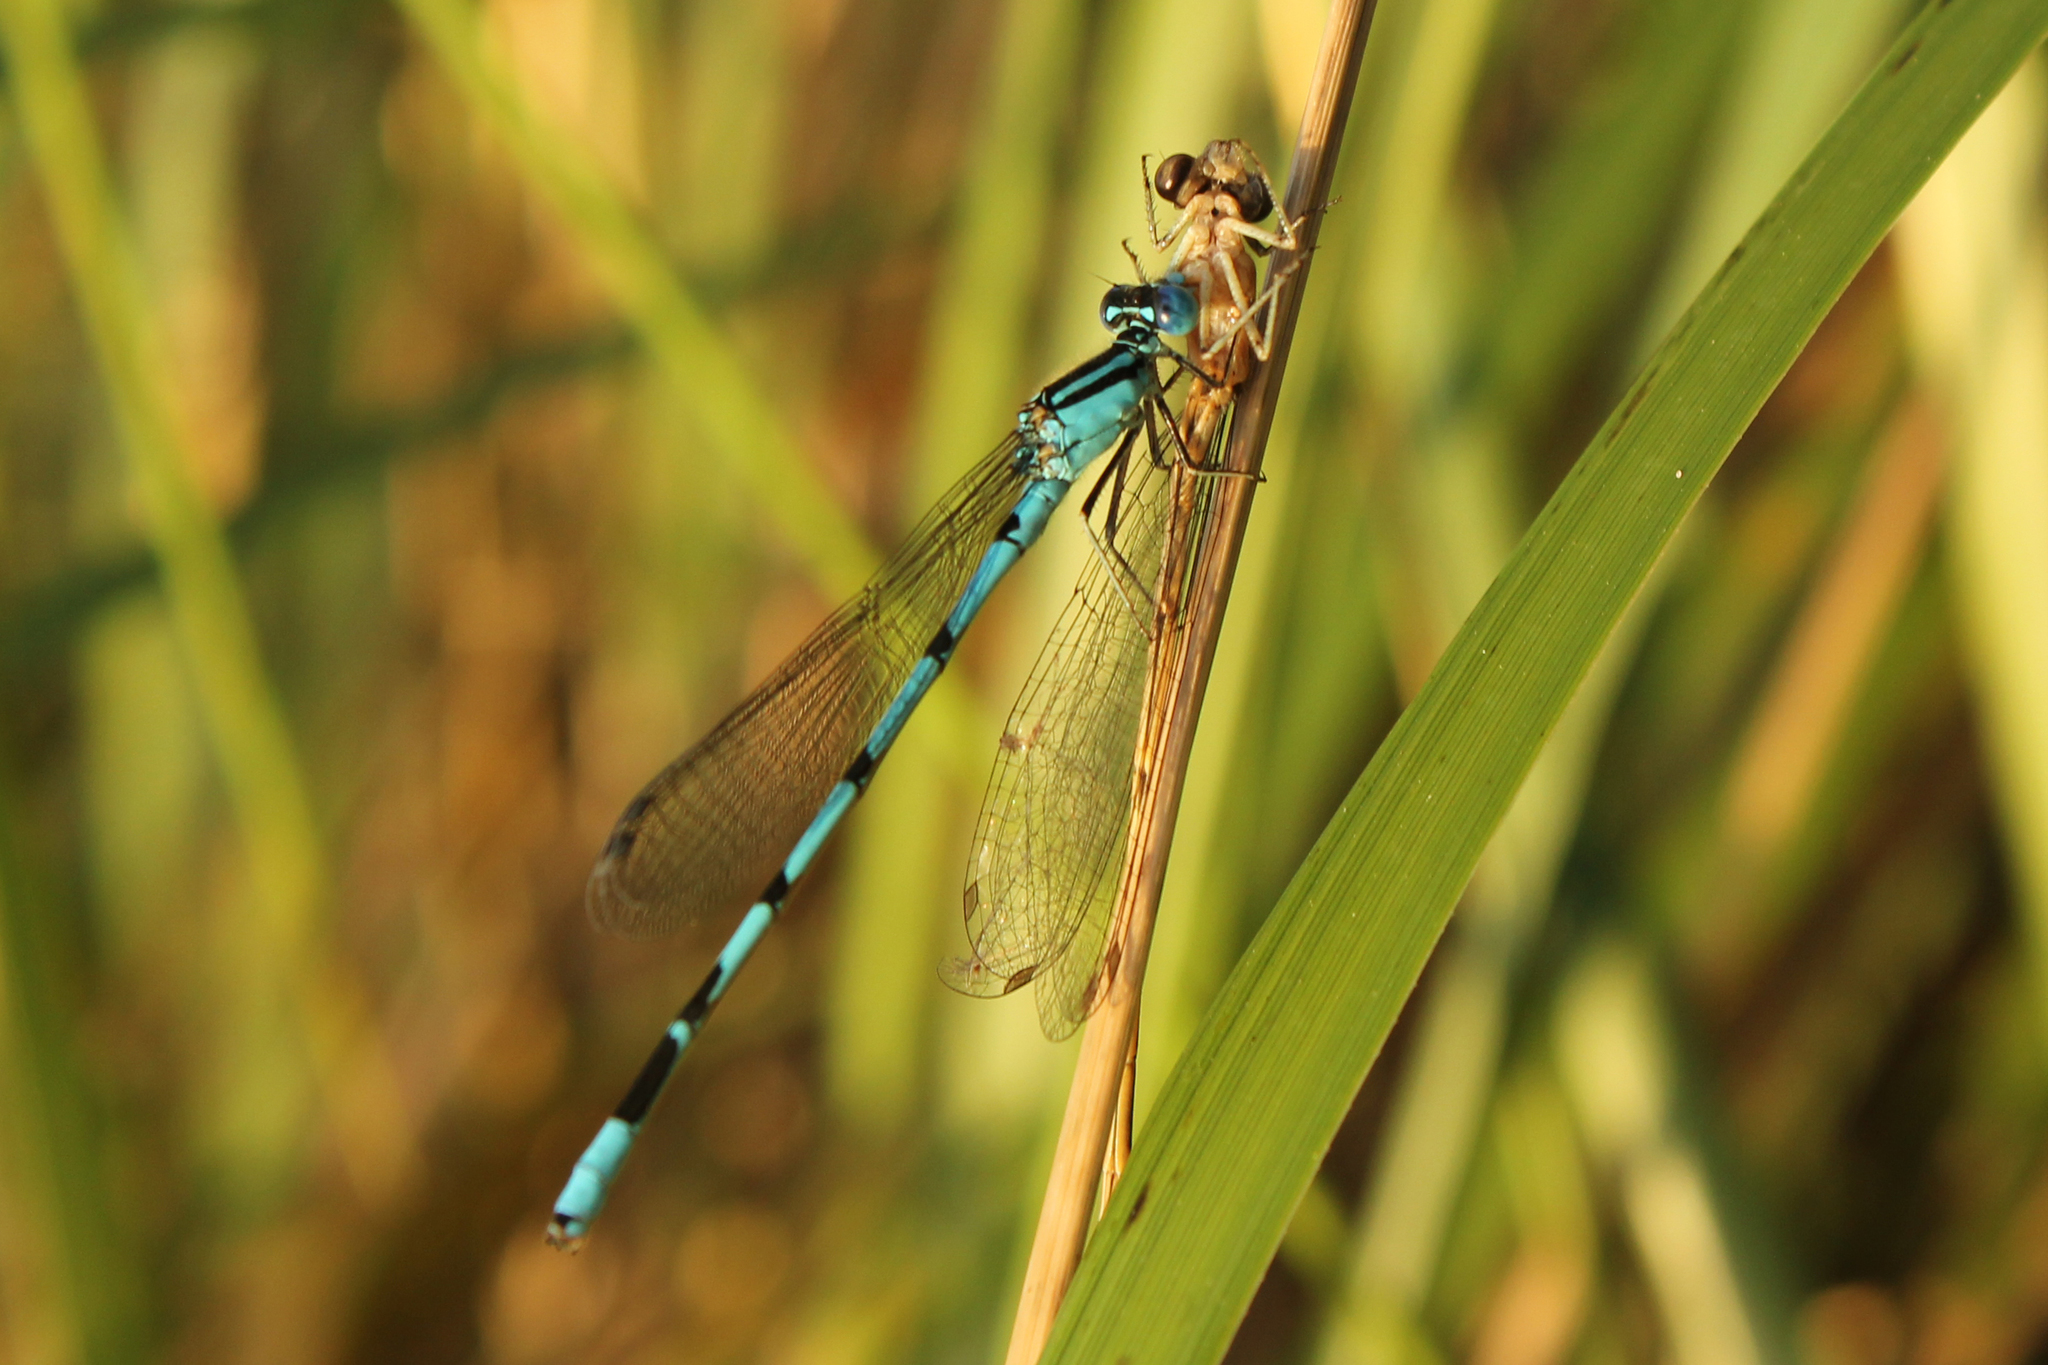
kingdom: Animalia
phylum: Arthropoda
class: Insecta
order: Odonata
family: Coenagrionidae
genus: Enallagma
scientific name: Enallagma durum
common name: Big bluet
